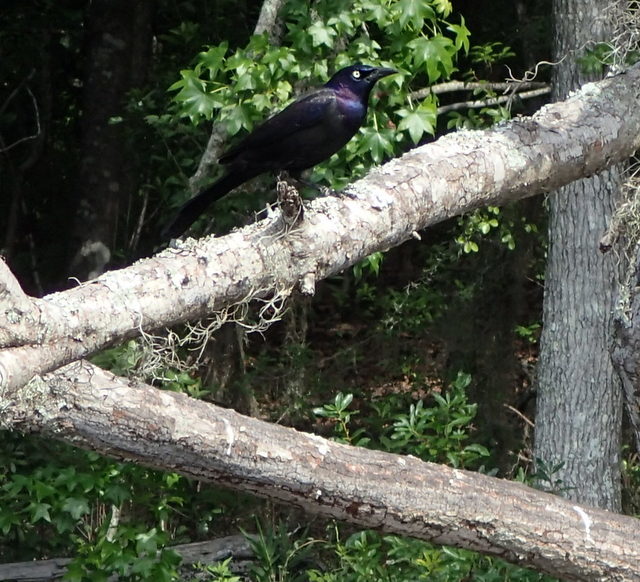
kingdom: Animalia
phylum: Chordata
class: Aves
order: Passeriformes
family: Icteridae
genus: Quiscalus
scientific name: Quiscalus quiscula
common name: Common grackle
